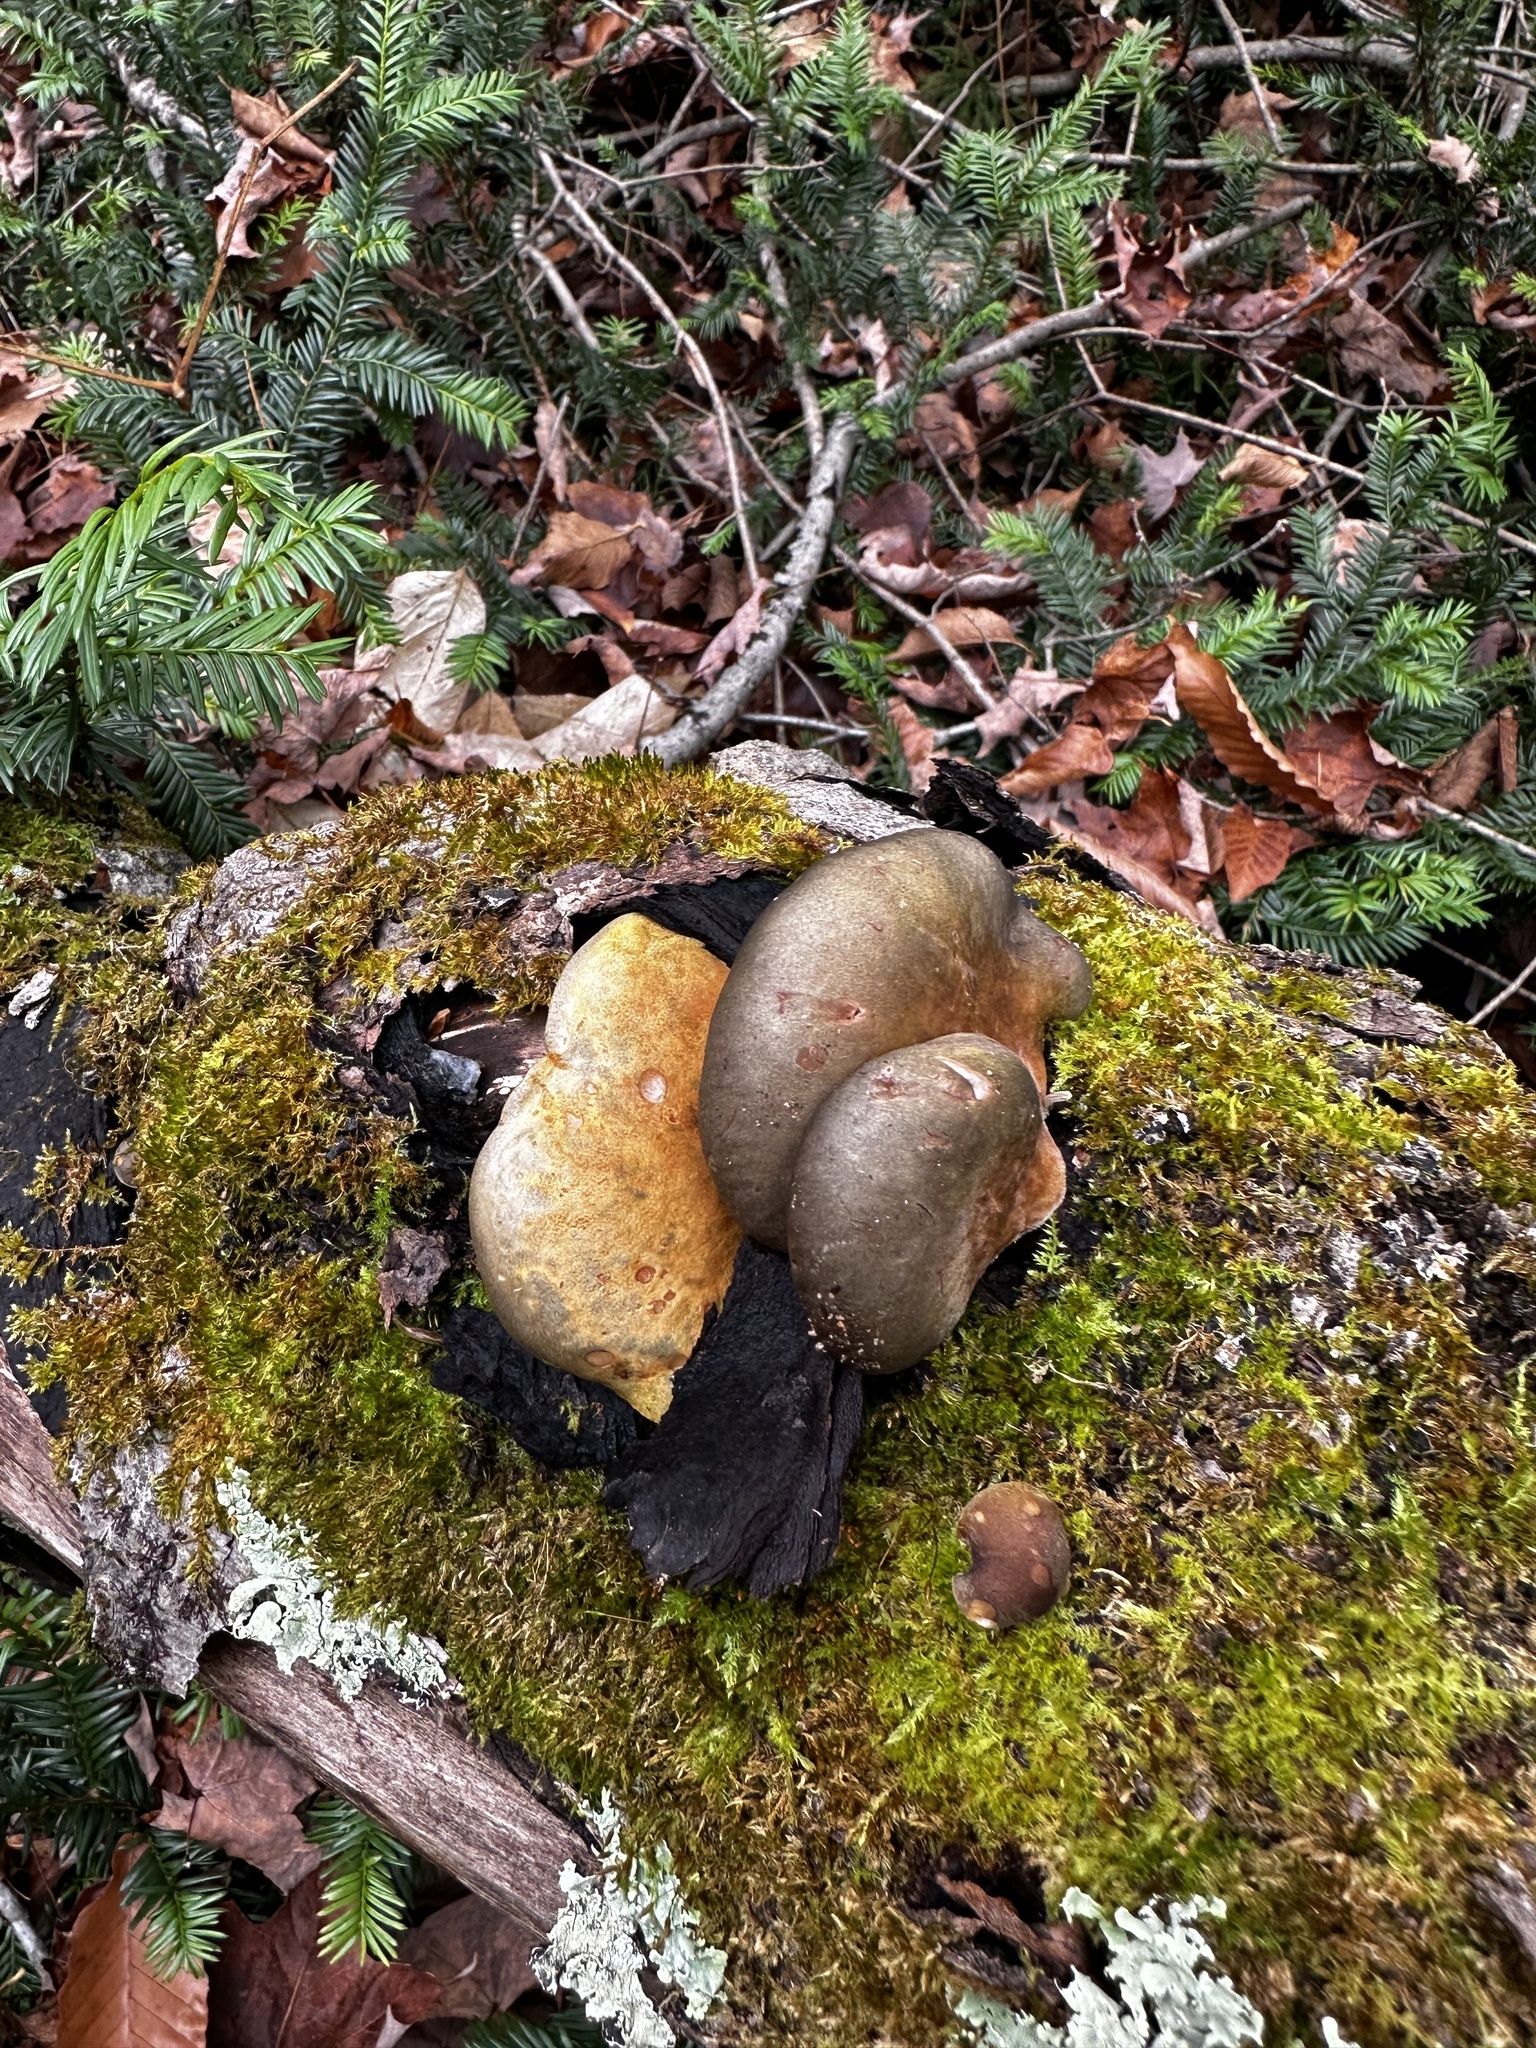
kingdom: Fungi
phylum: Basidiomycota
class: Agaricomycetes
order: Agaricales
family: Sarcomyxaceae
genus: Sarcomyxa
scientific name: Sarcomyxa serotina
